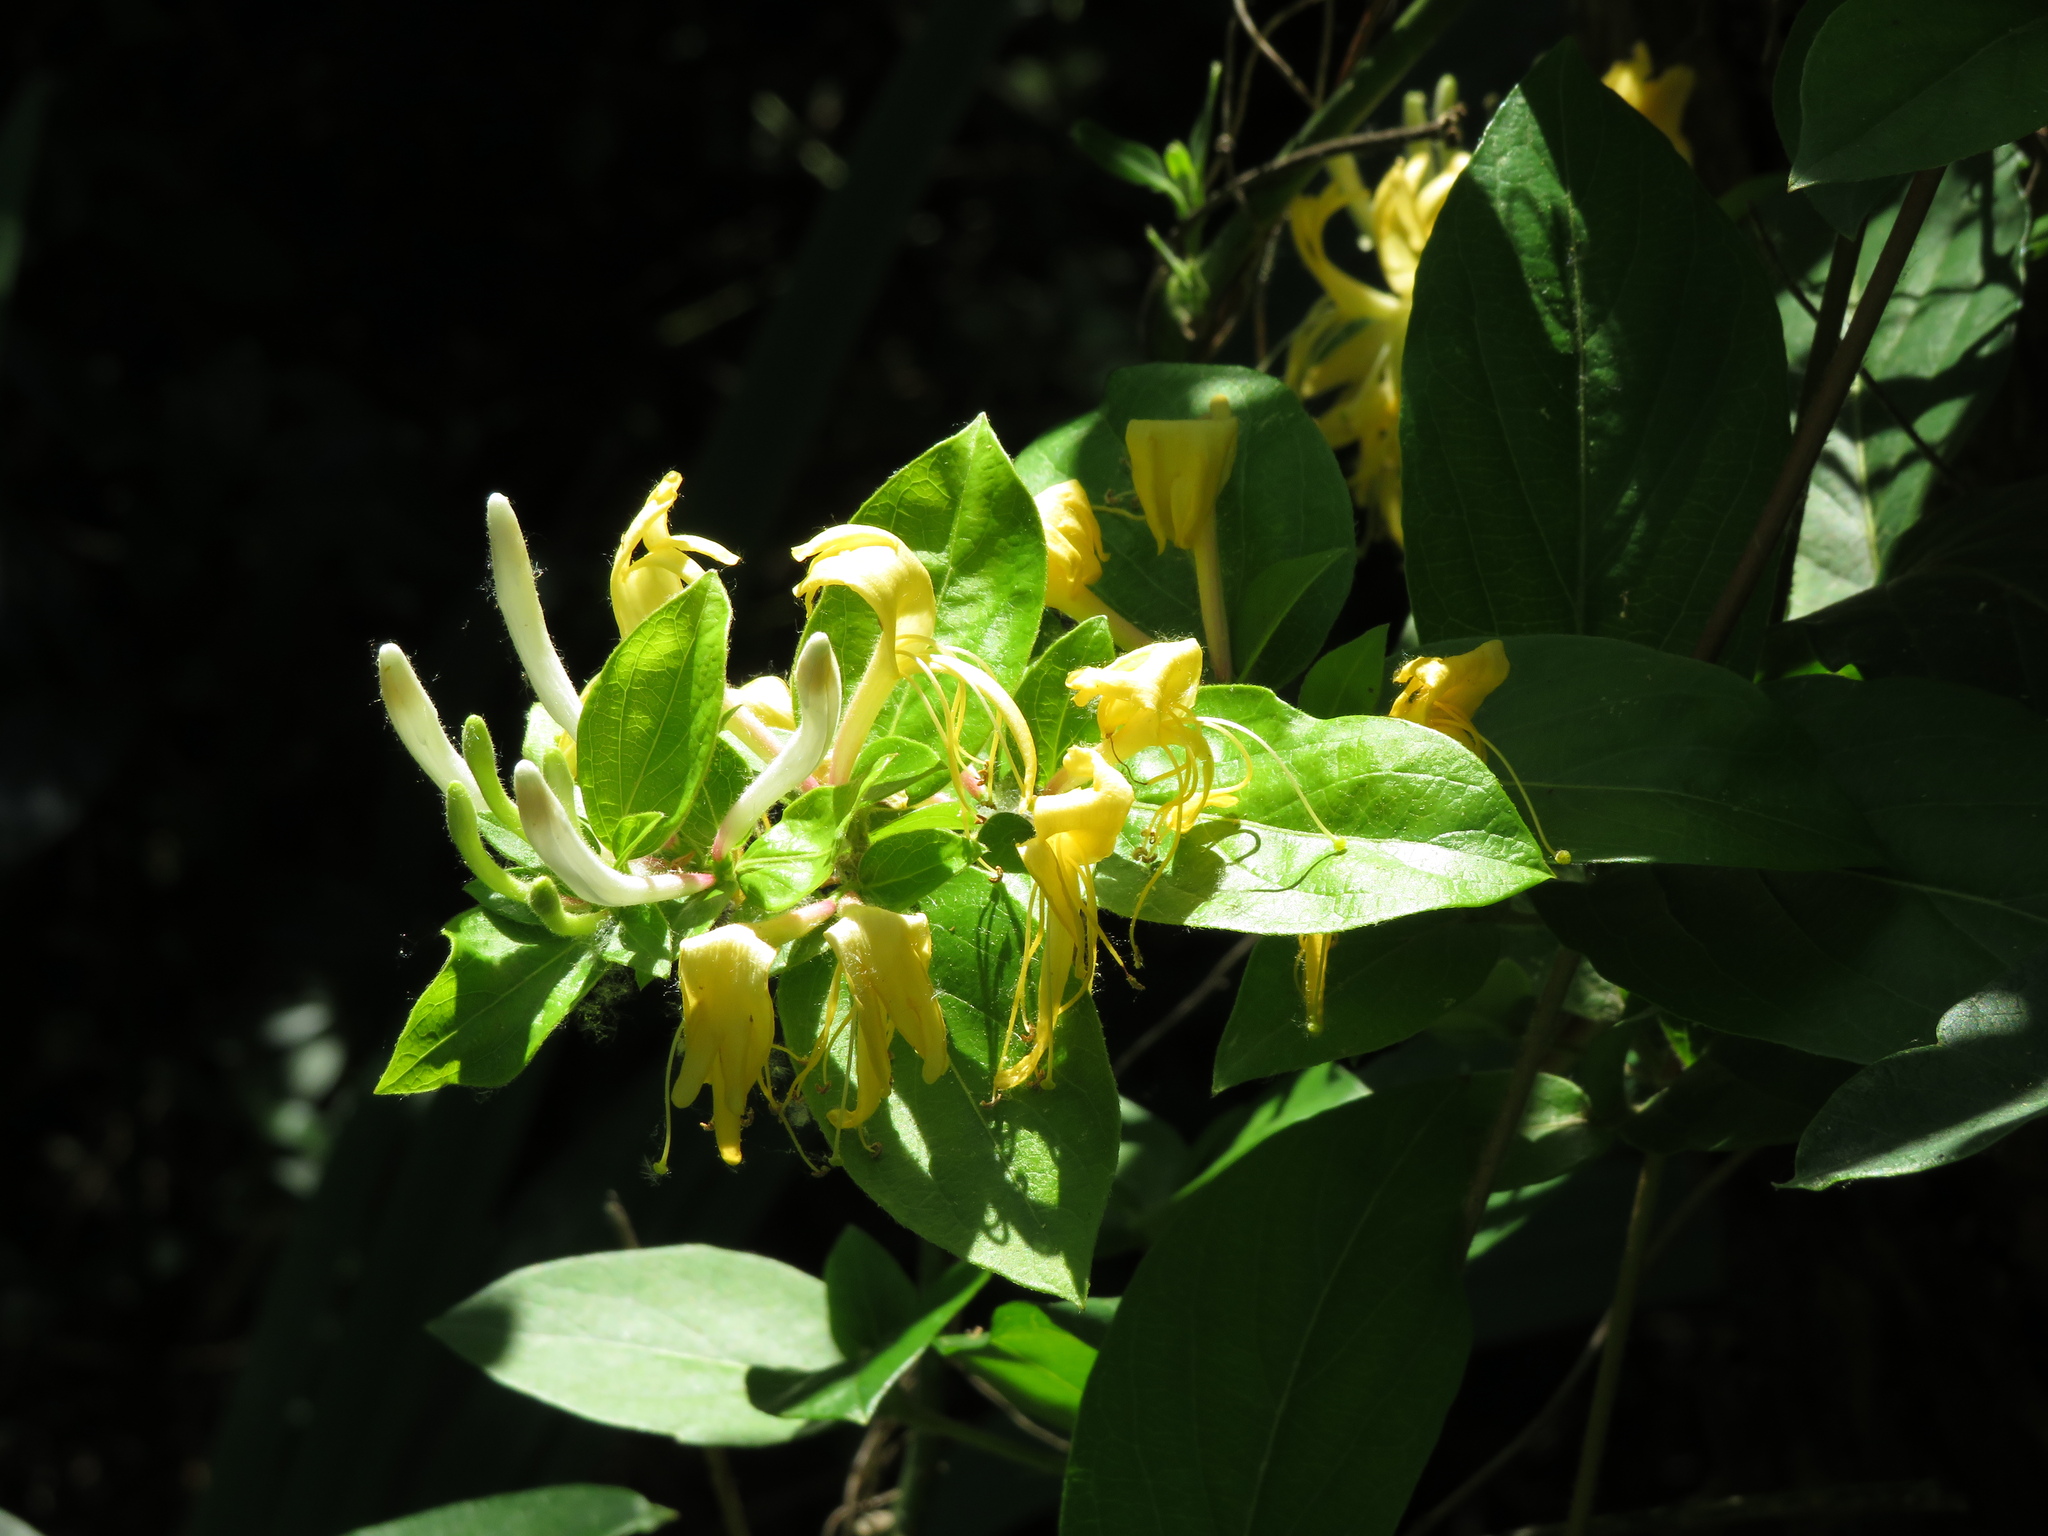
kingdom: Plantae
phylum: Tracheophyta
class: Magnoliopsida
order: Dipsacales
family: Caprifoliaceae
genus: Lonicera
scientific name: Lonicera japonica
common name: Japanese honeysuckle
